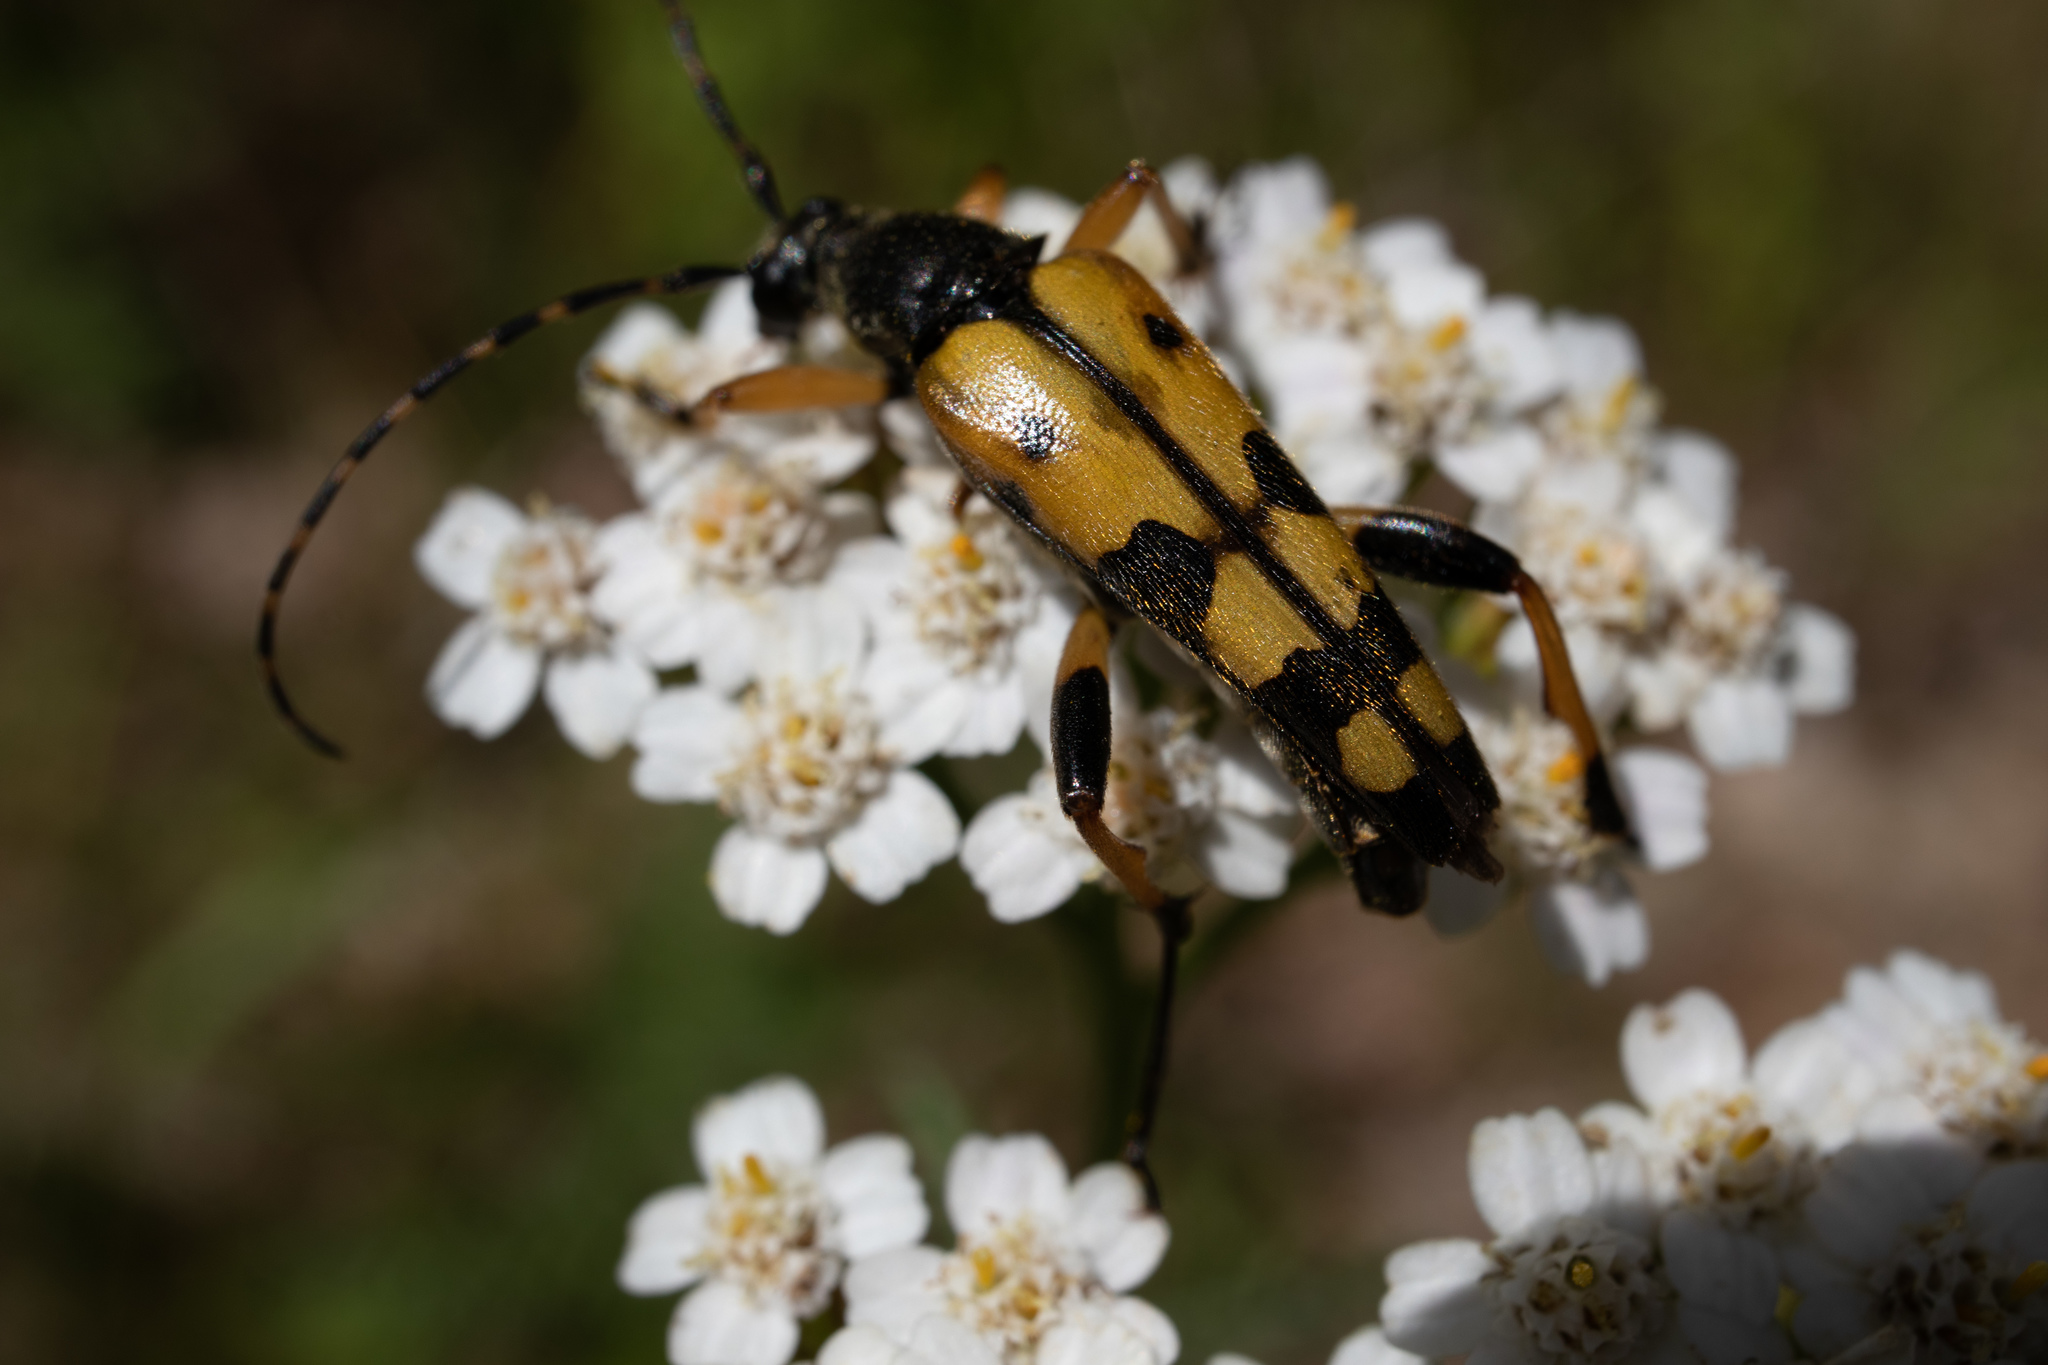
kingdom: Animalia
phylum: Arthropoda
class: Insecta
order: Coleoptera
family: Cerambycidae
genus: Rutpela
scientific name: Rutpela maculata
